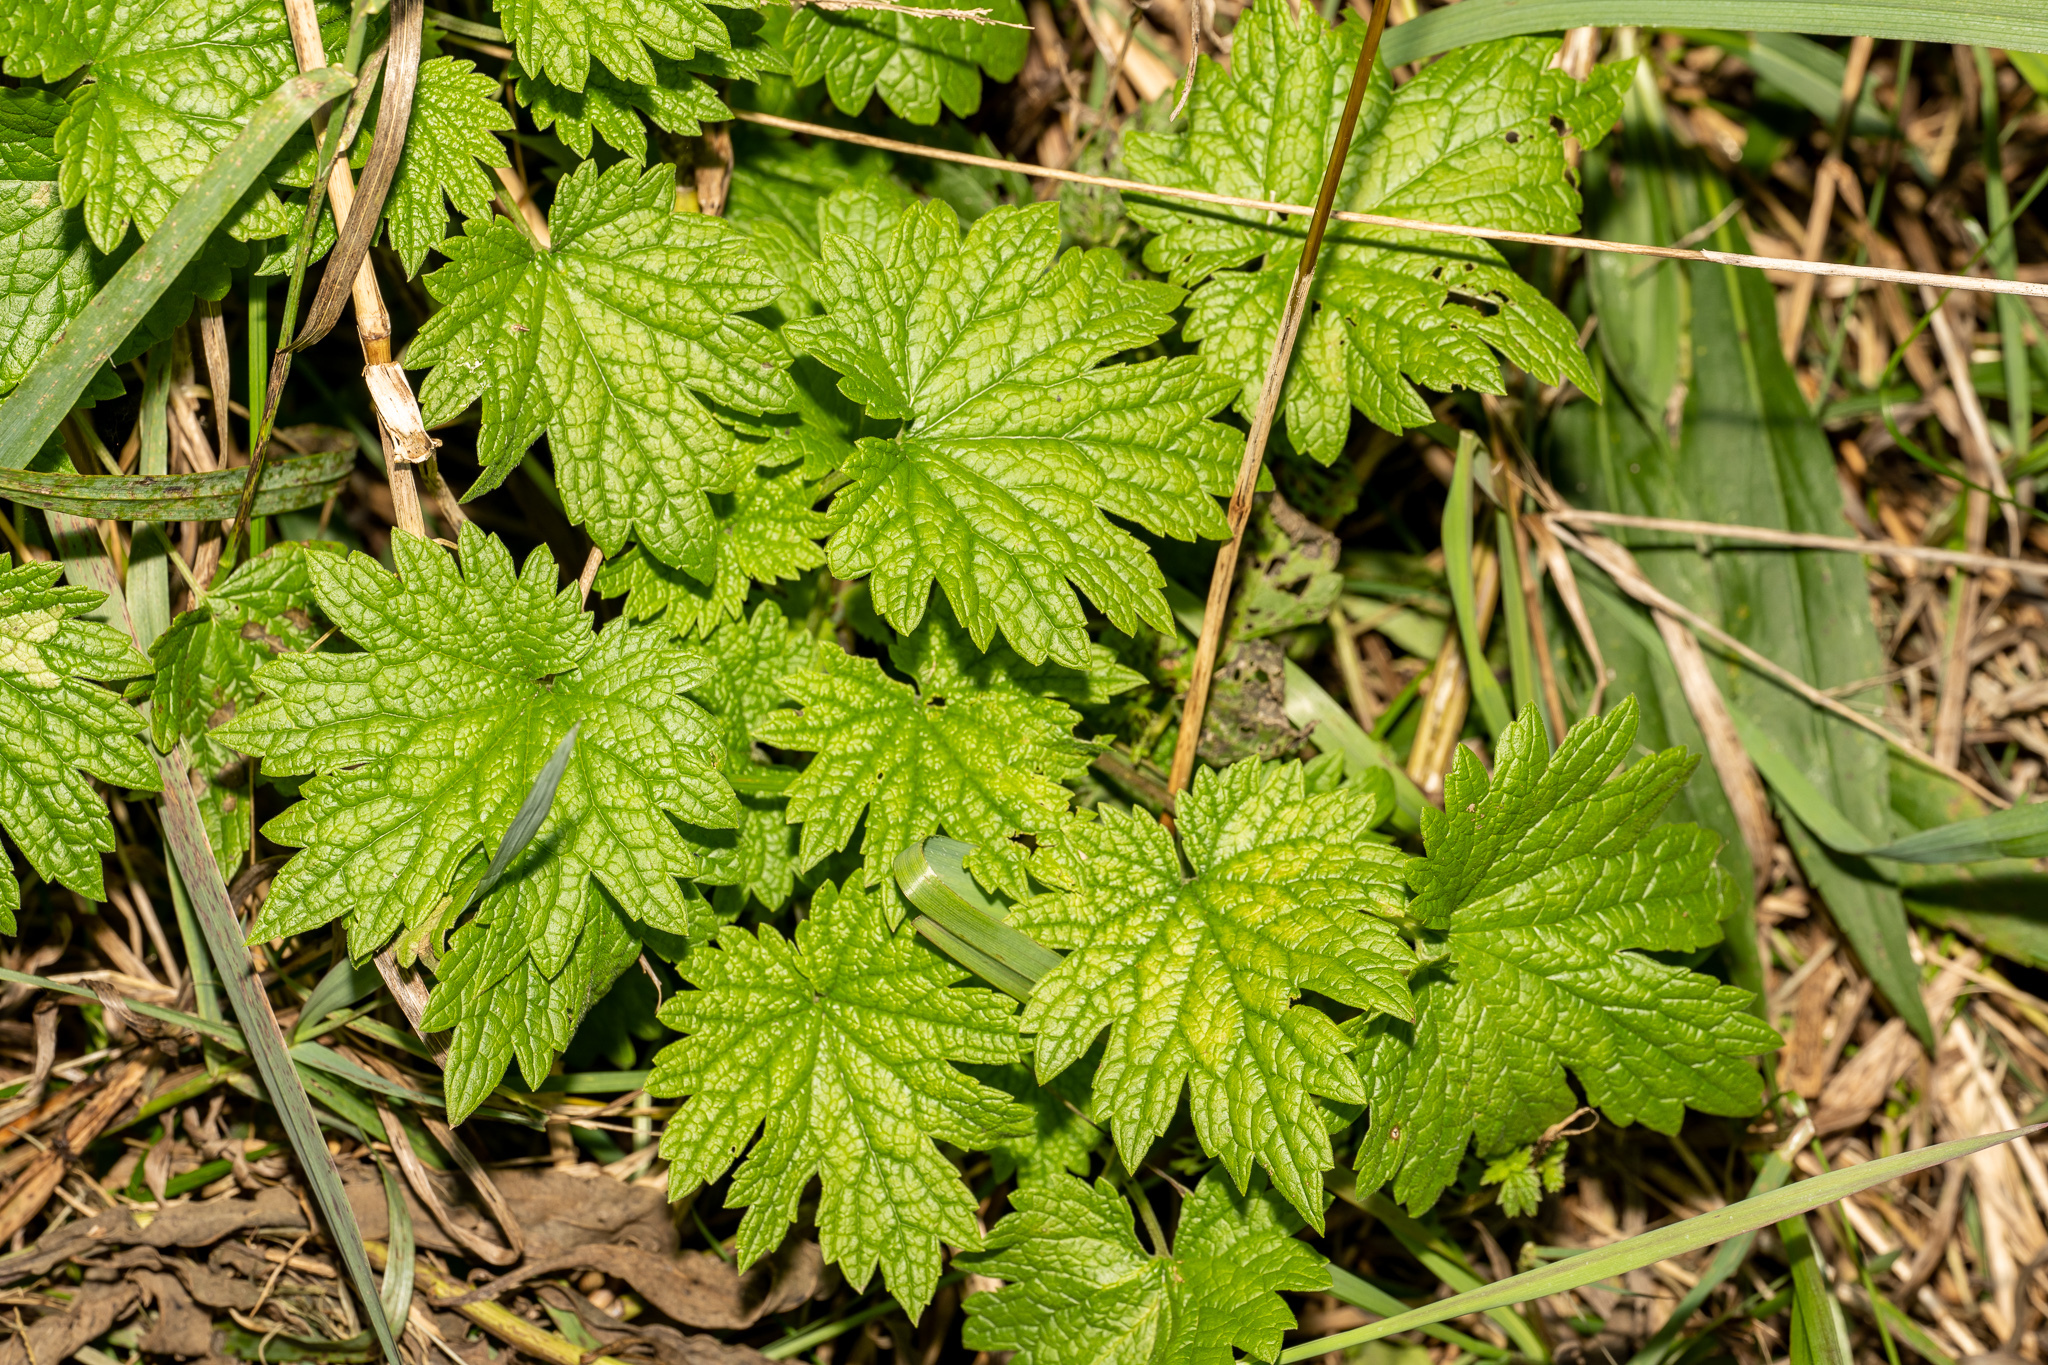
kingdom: Plantae
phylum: Tracheophyta
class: Magnoliopsida
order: Lamiales
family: Lamiaceae
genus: Leonurus
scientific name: Leonurus cardiaca
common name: Motherwort
